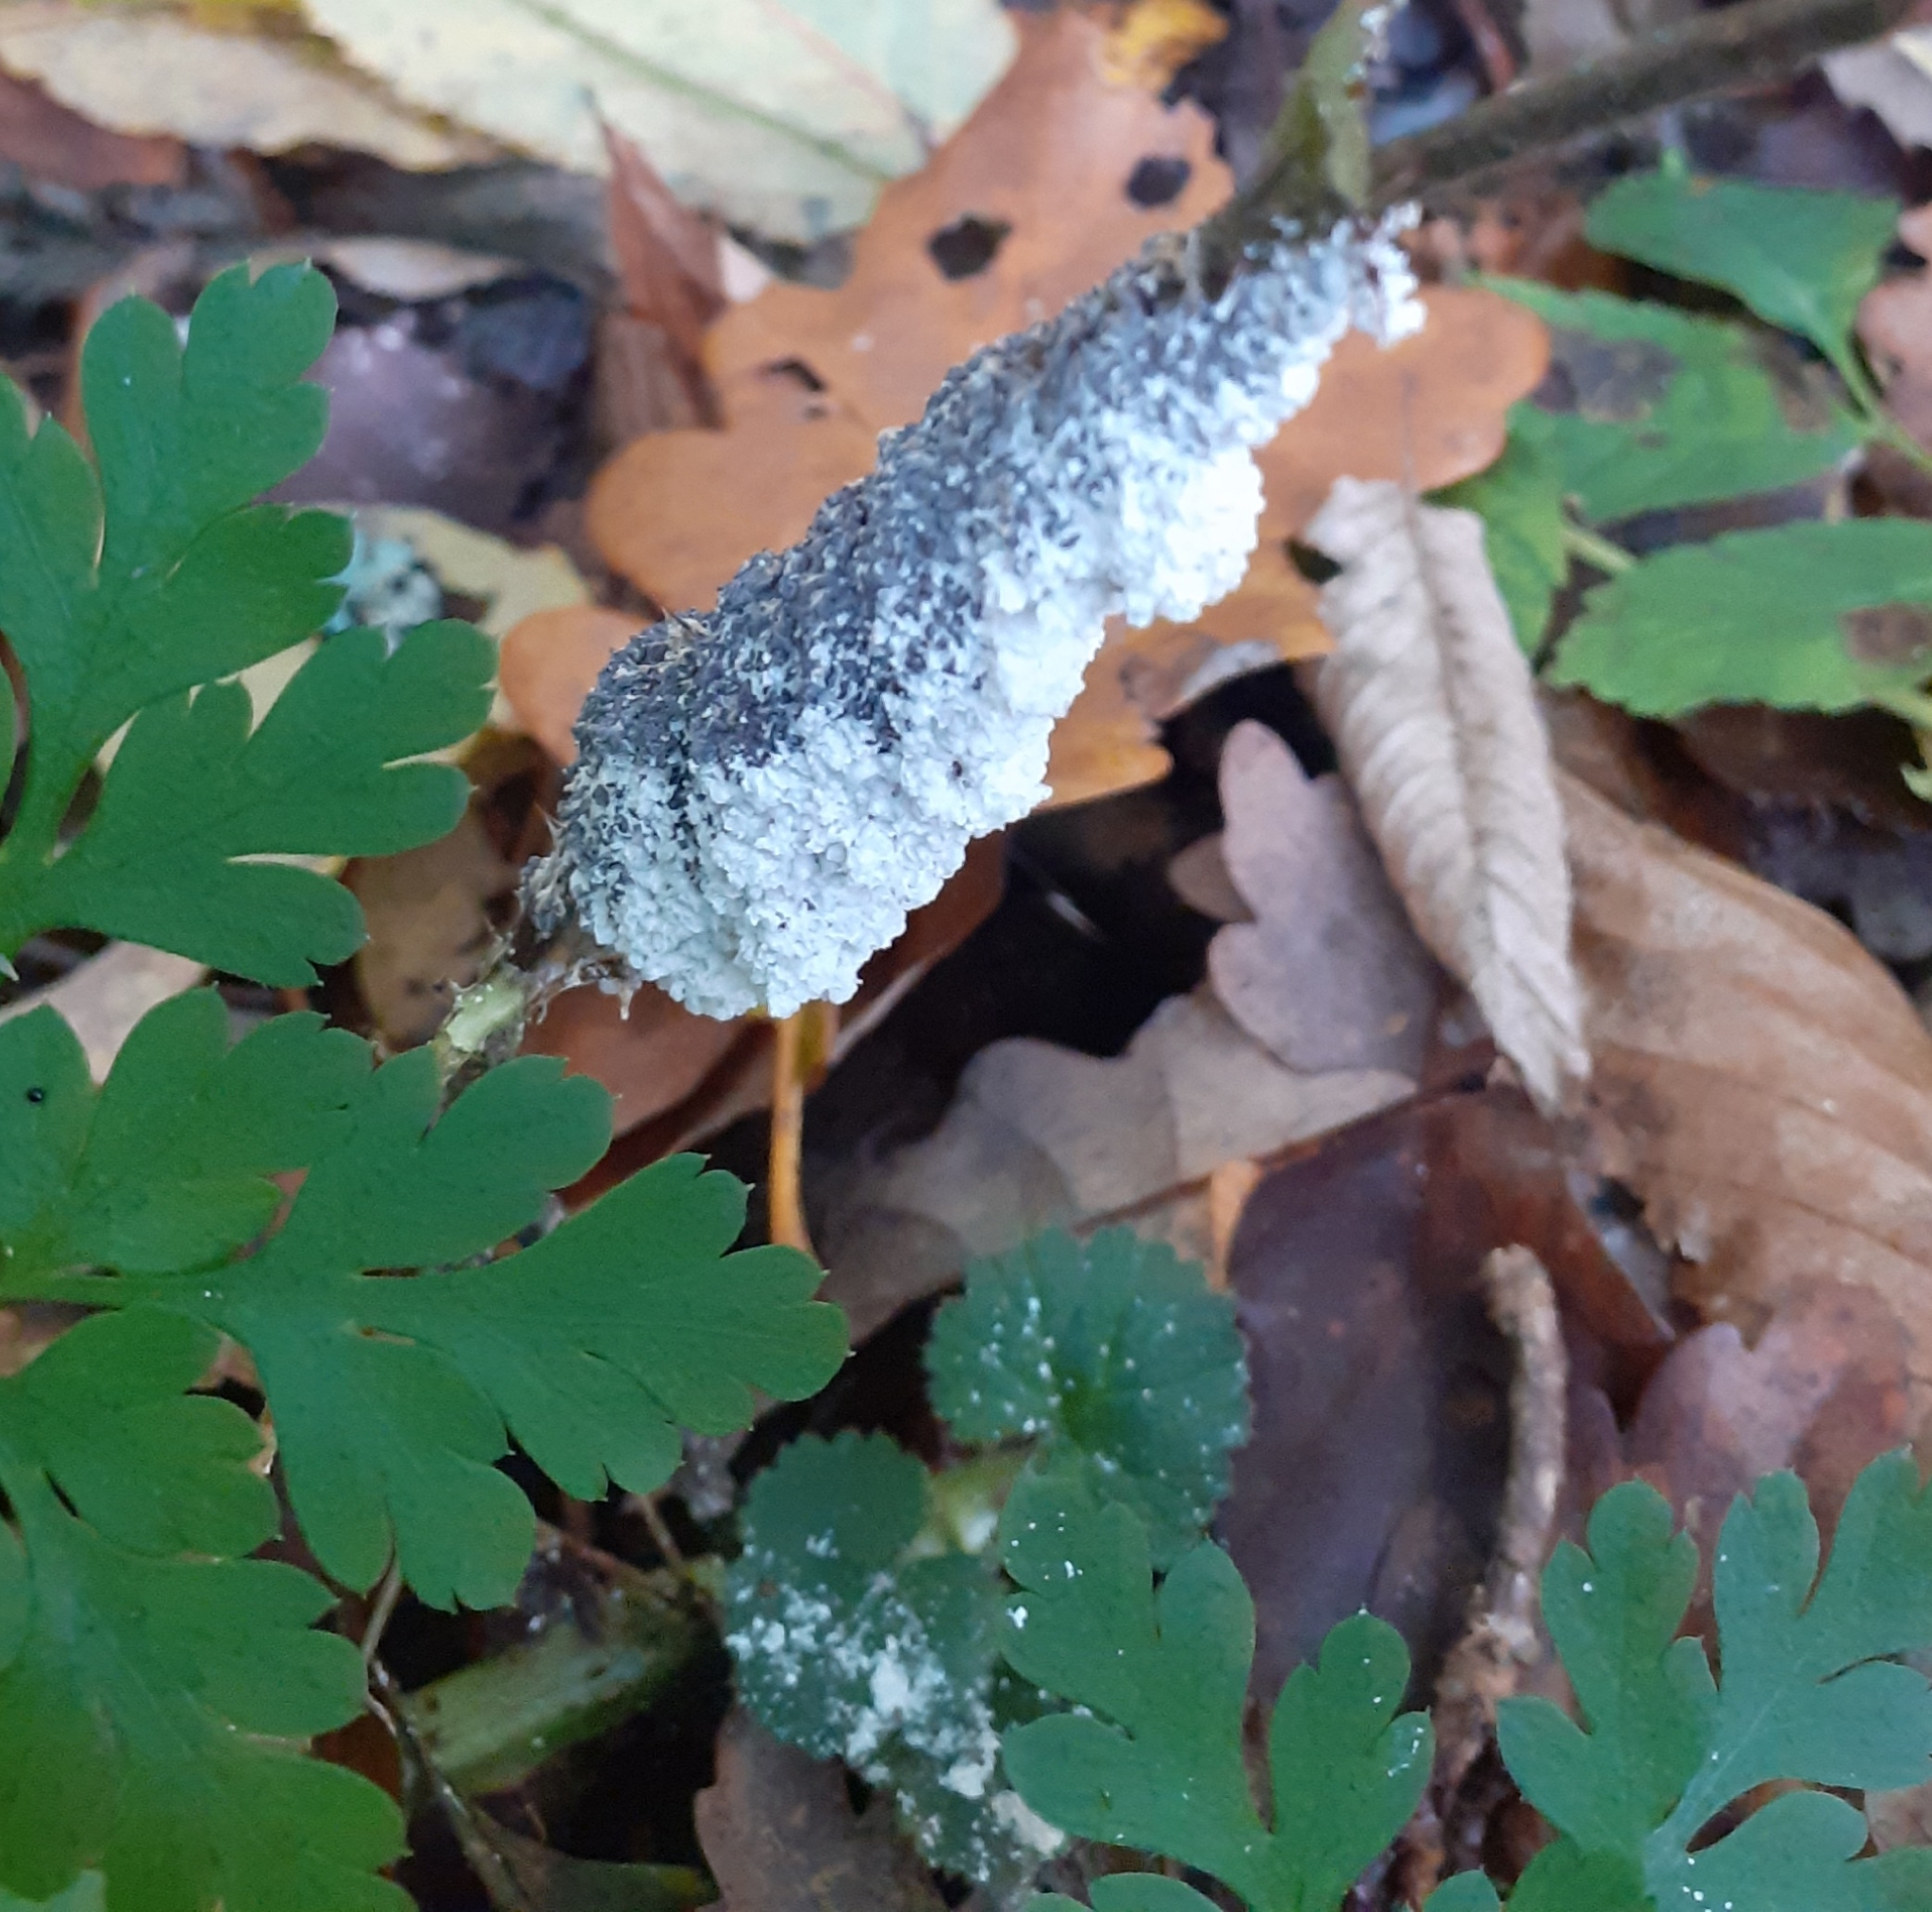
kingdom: Protozoa
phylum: Mycetozoa
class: Myxomycetes
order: Physarales
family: Physaraceae
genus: Didymium
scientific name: Didymium
